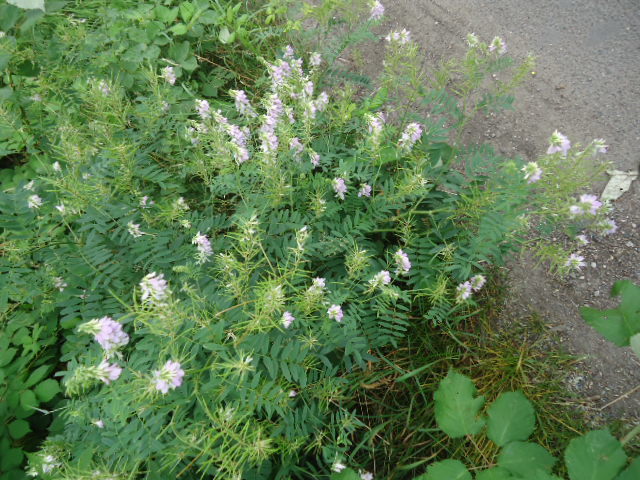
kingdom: Plantae
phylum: Tracheophyta
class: Magnoliopsida
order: Fabales
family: Fabaceae
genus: Galega
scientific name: Galega officinalis
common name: Goat's-rue
